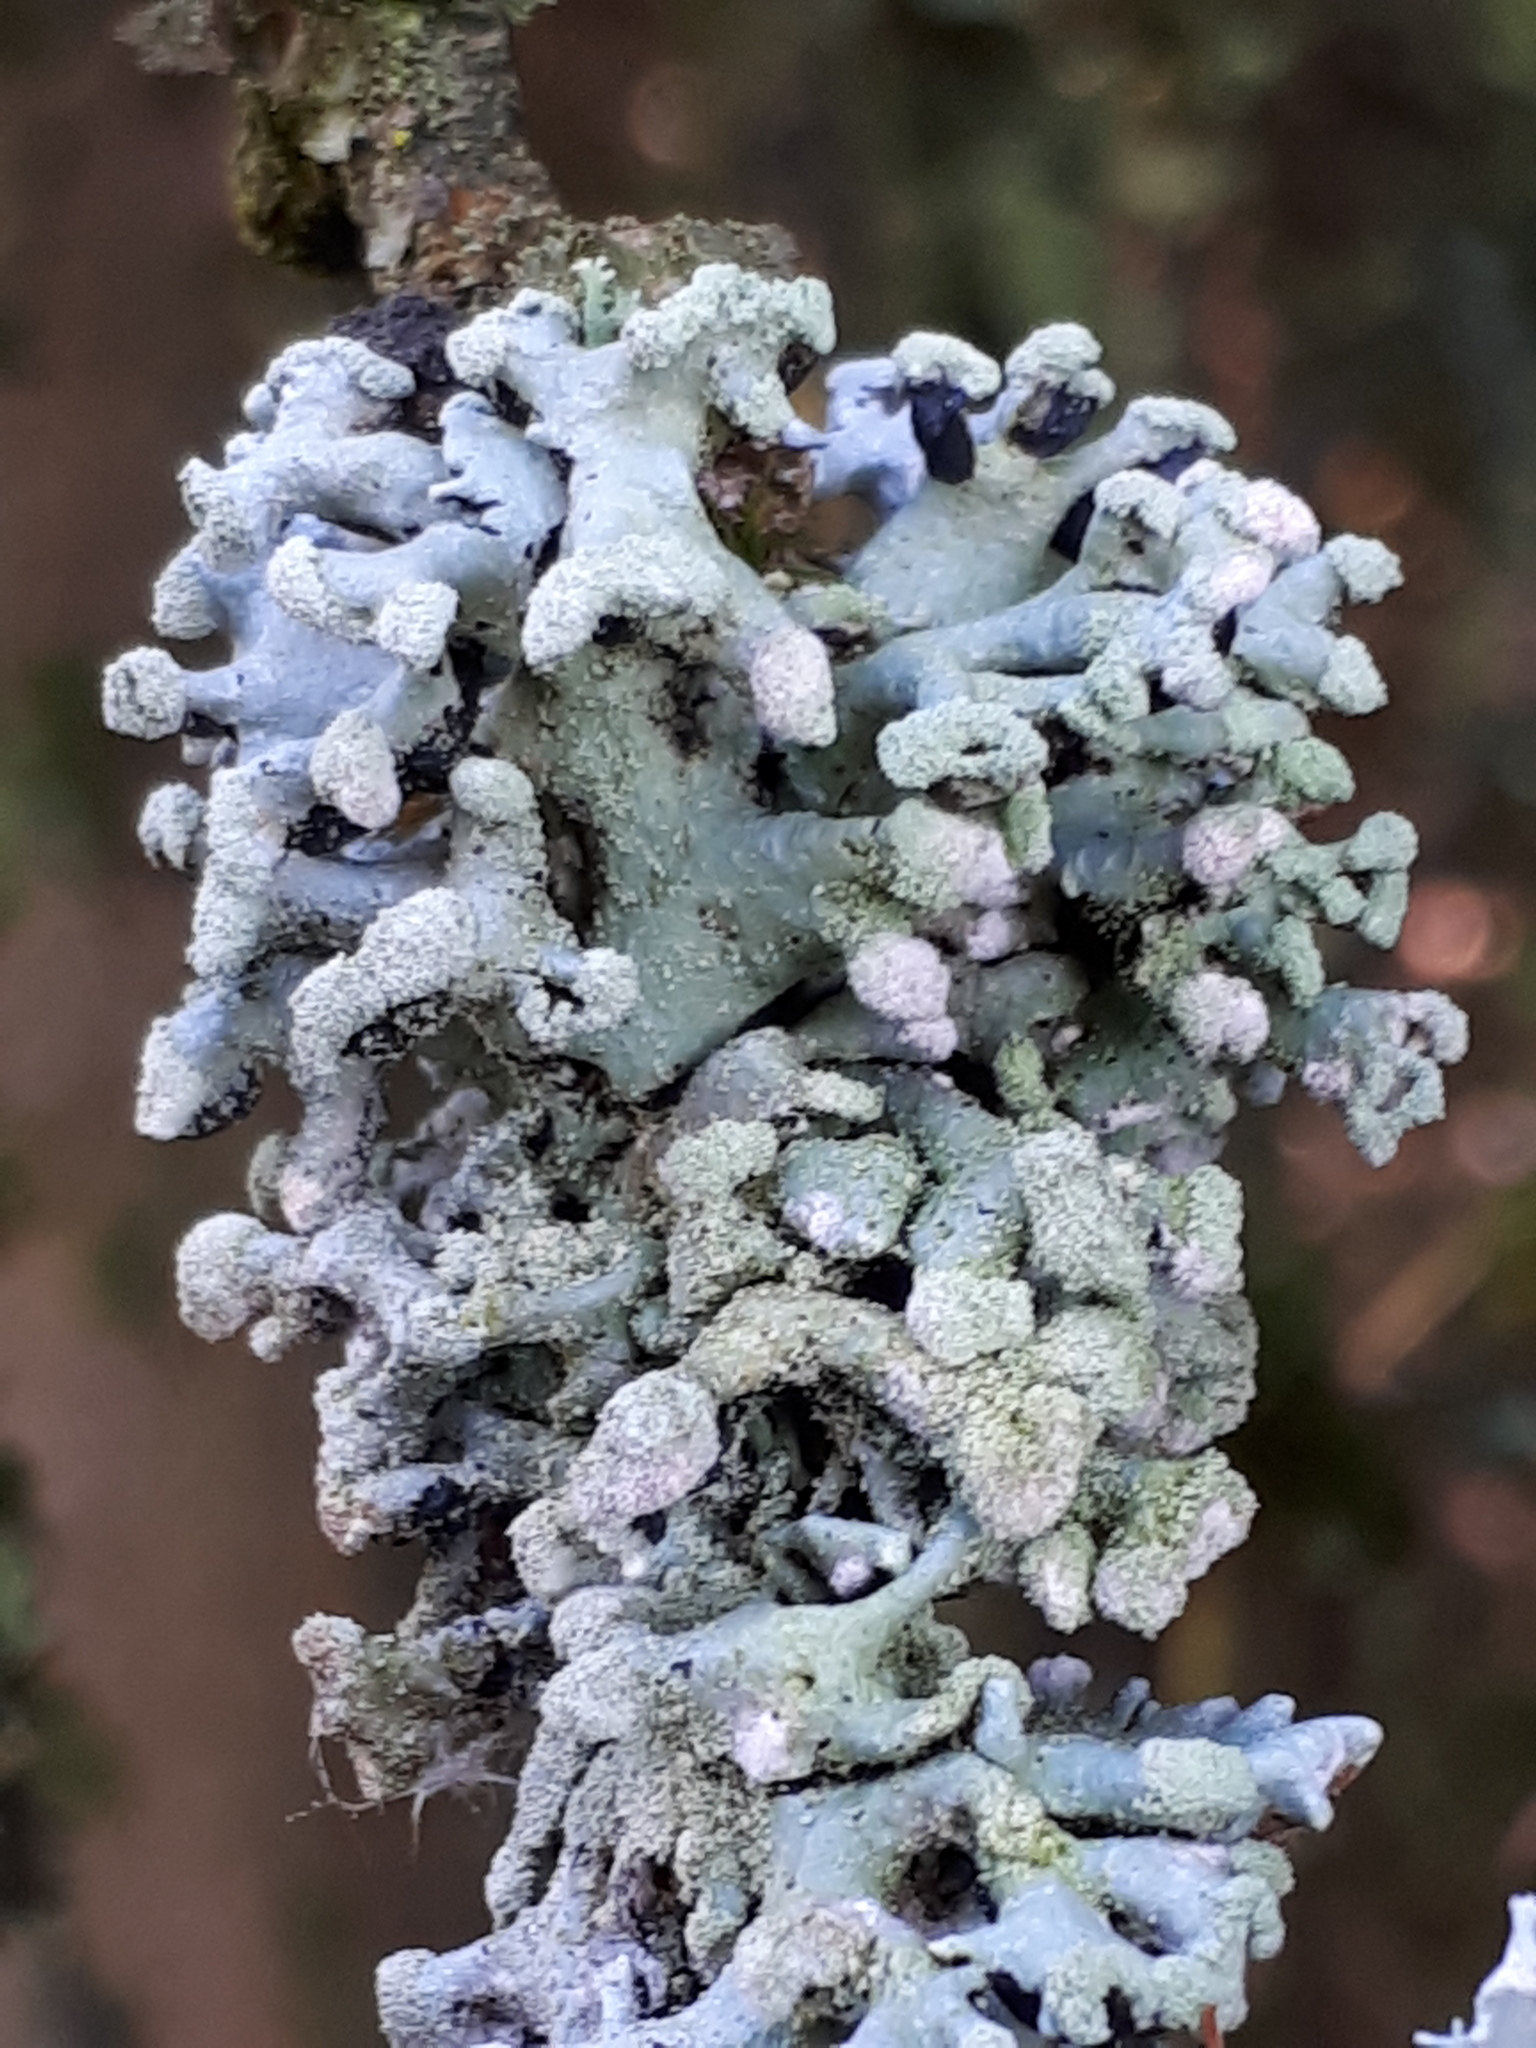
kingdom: Fungi
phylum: Ascomycota
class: Lecanoromycetes
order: Lecanorales
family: Parmeliaceae
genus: Hypogymnia
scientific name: Hypogymnia tubulosa
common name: Powder-headed tube lichen
